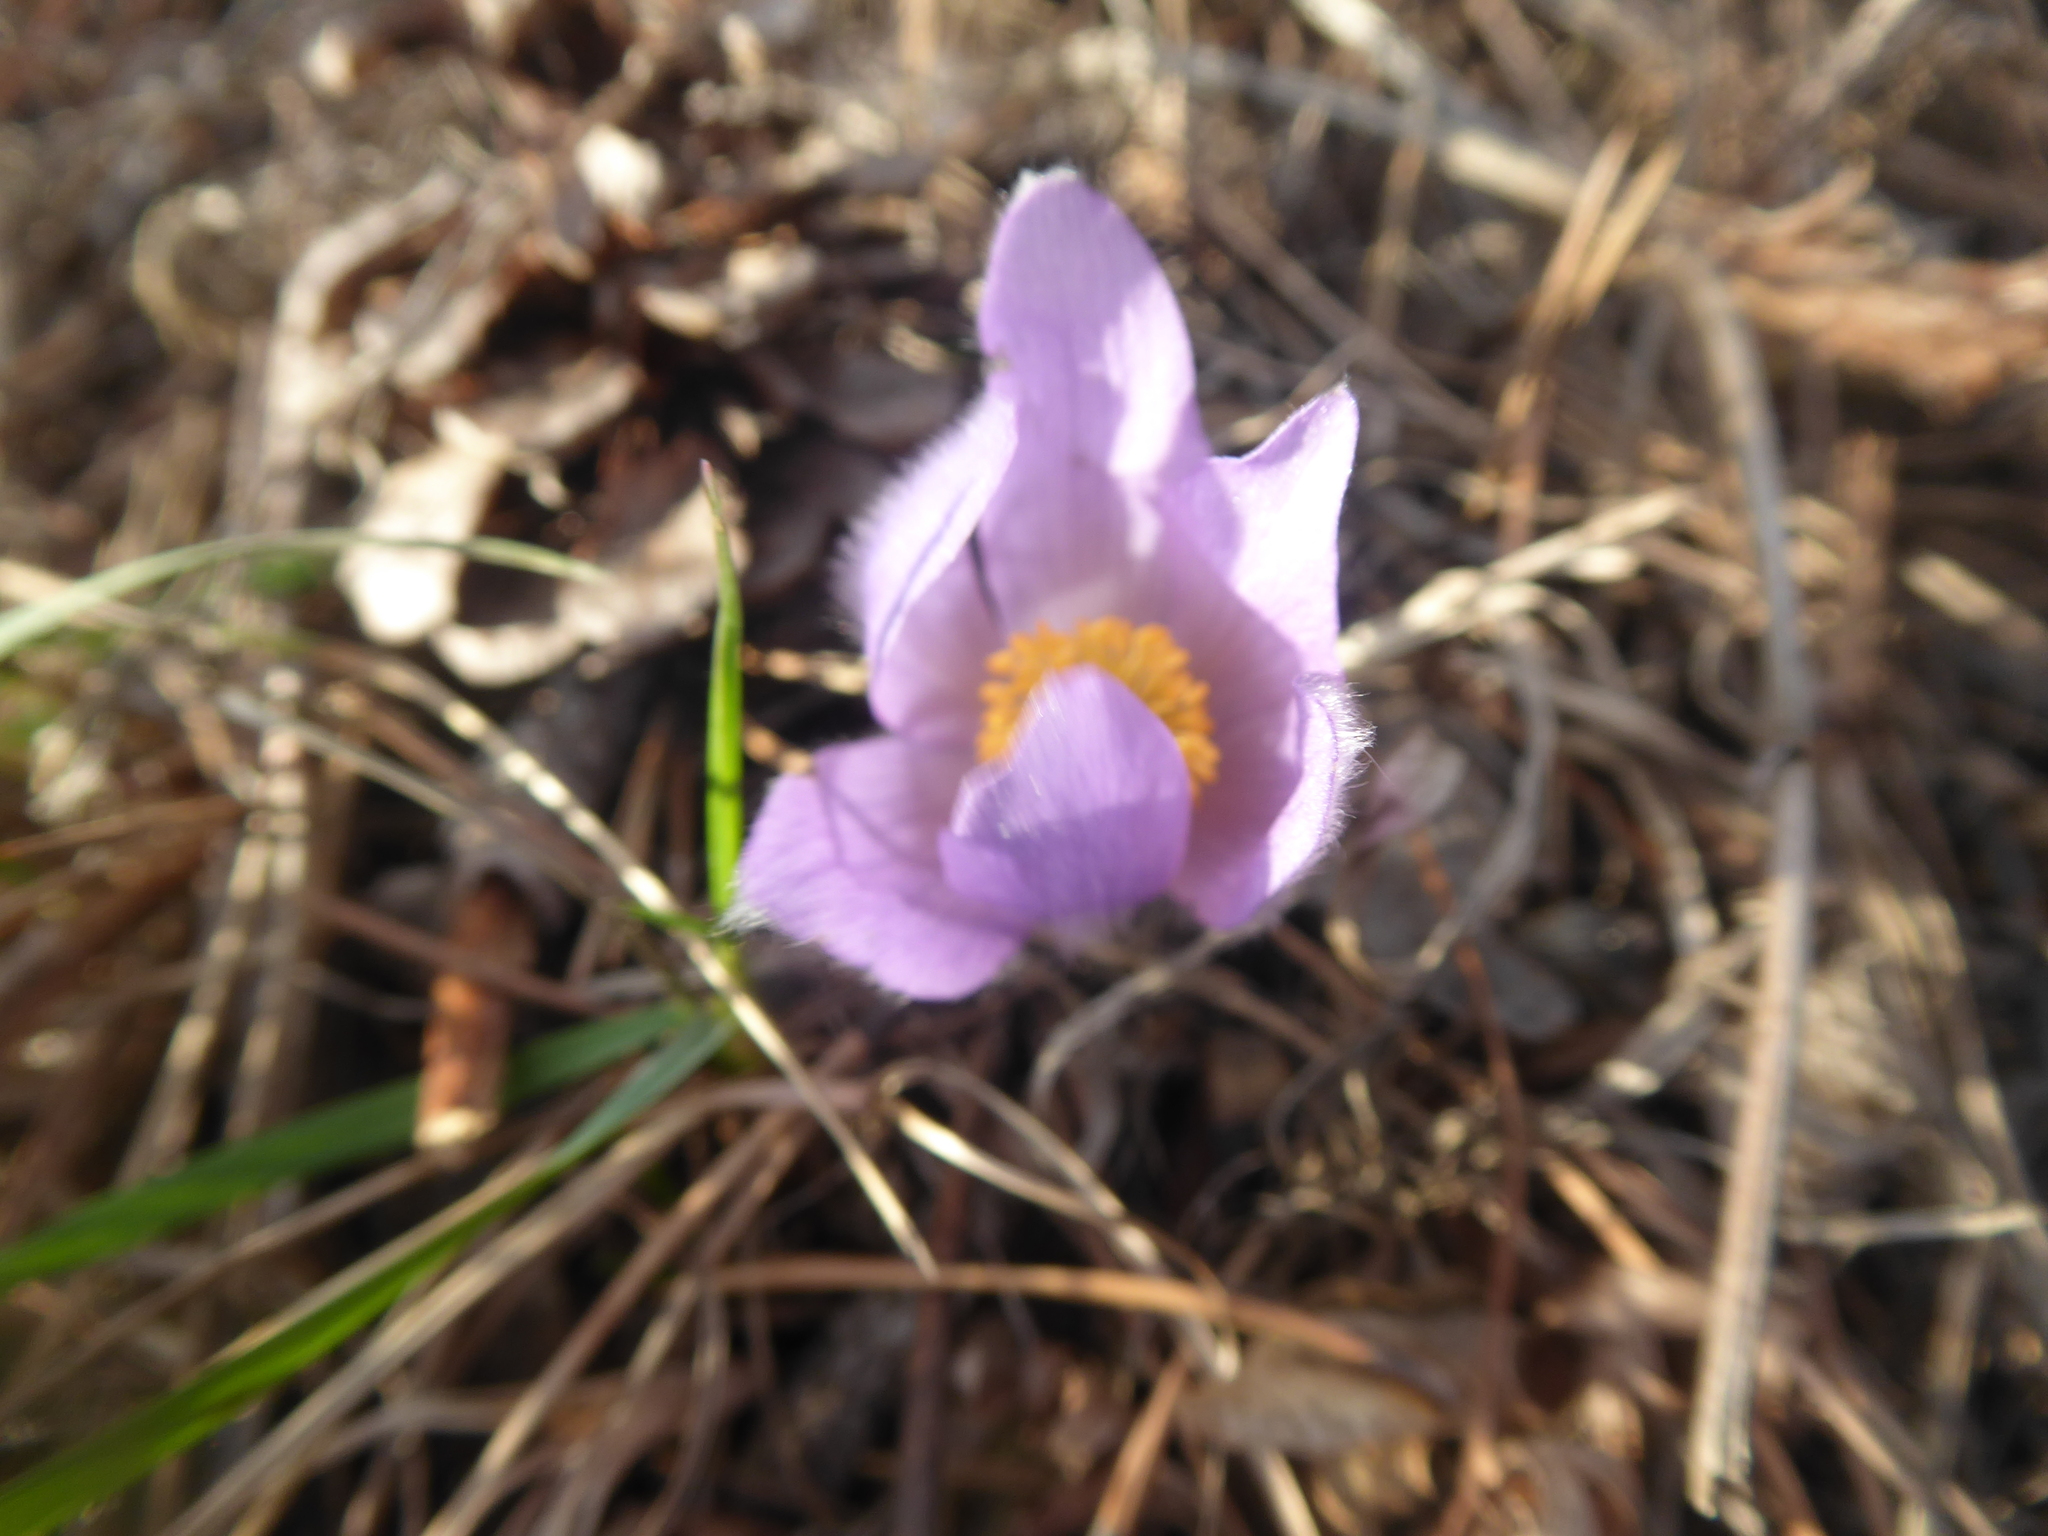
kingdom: Plantae
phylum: Tracheophyta
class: Magnoliopsida
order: Ranunculales
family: Ranunculaceae
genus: Pulsatilla
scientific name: Pulsatilla grandis
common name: Greater pasque flower
